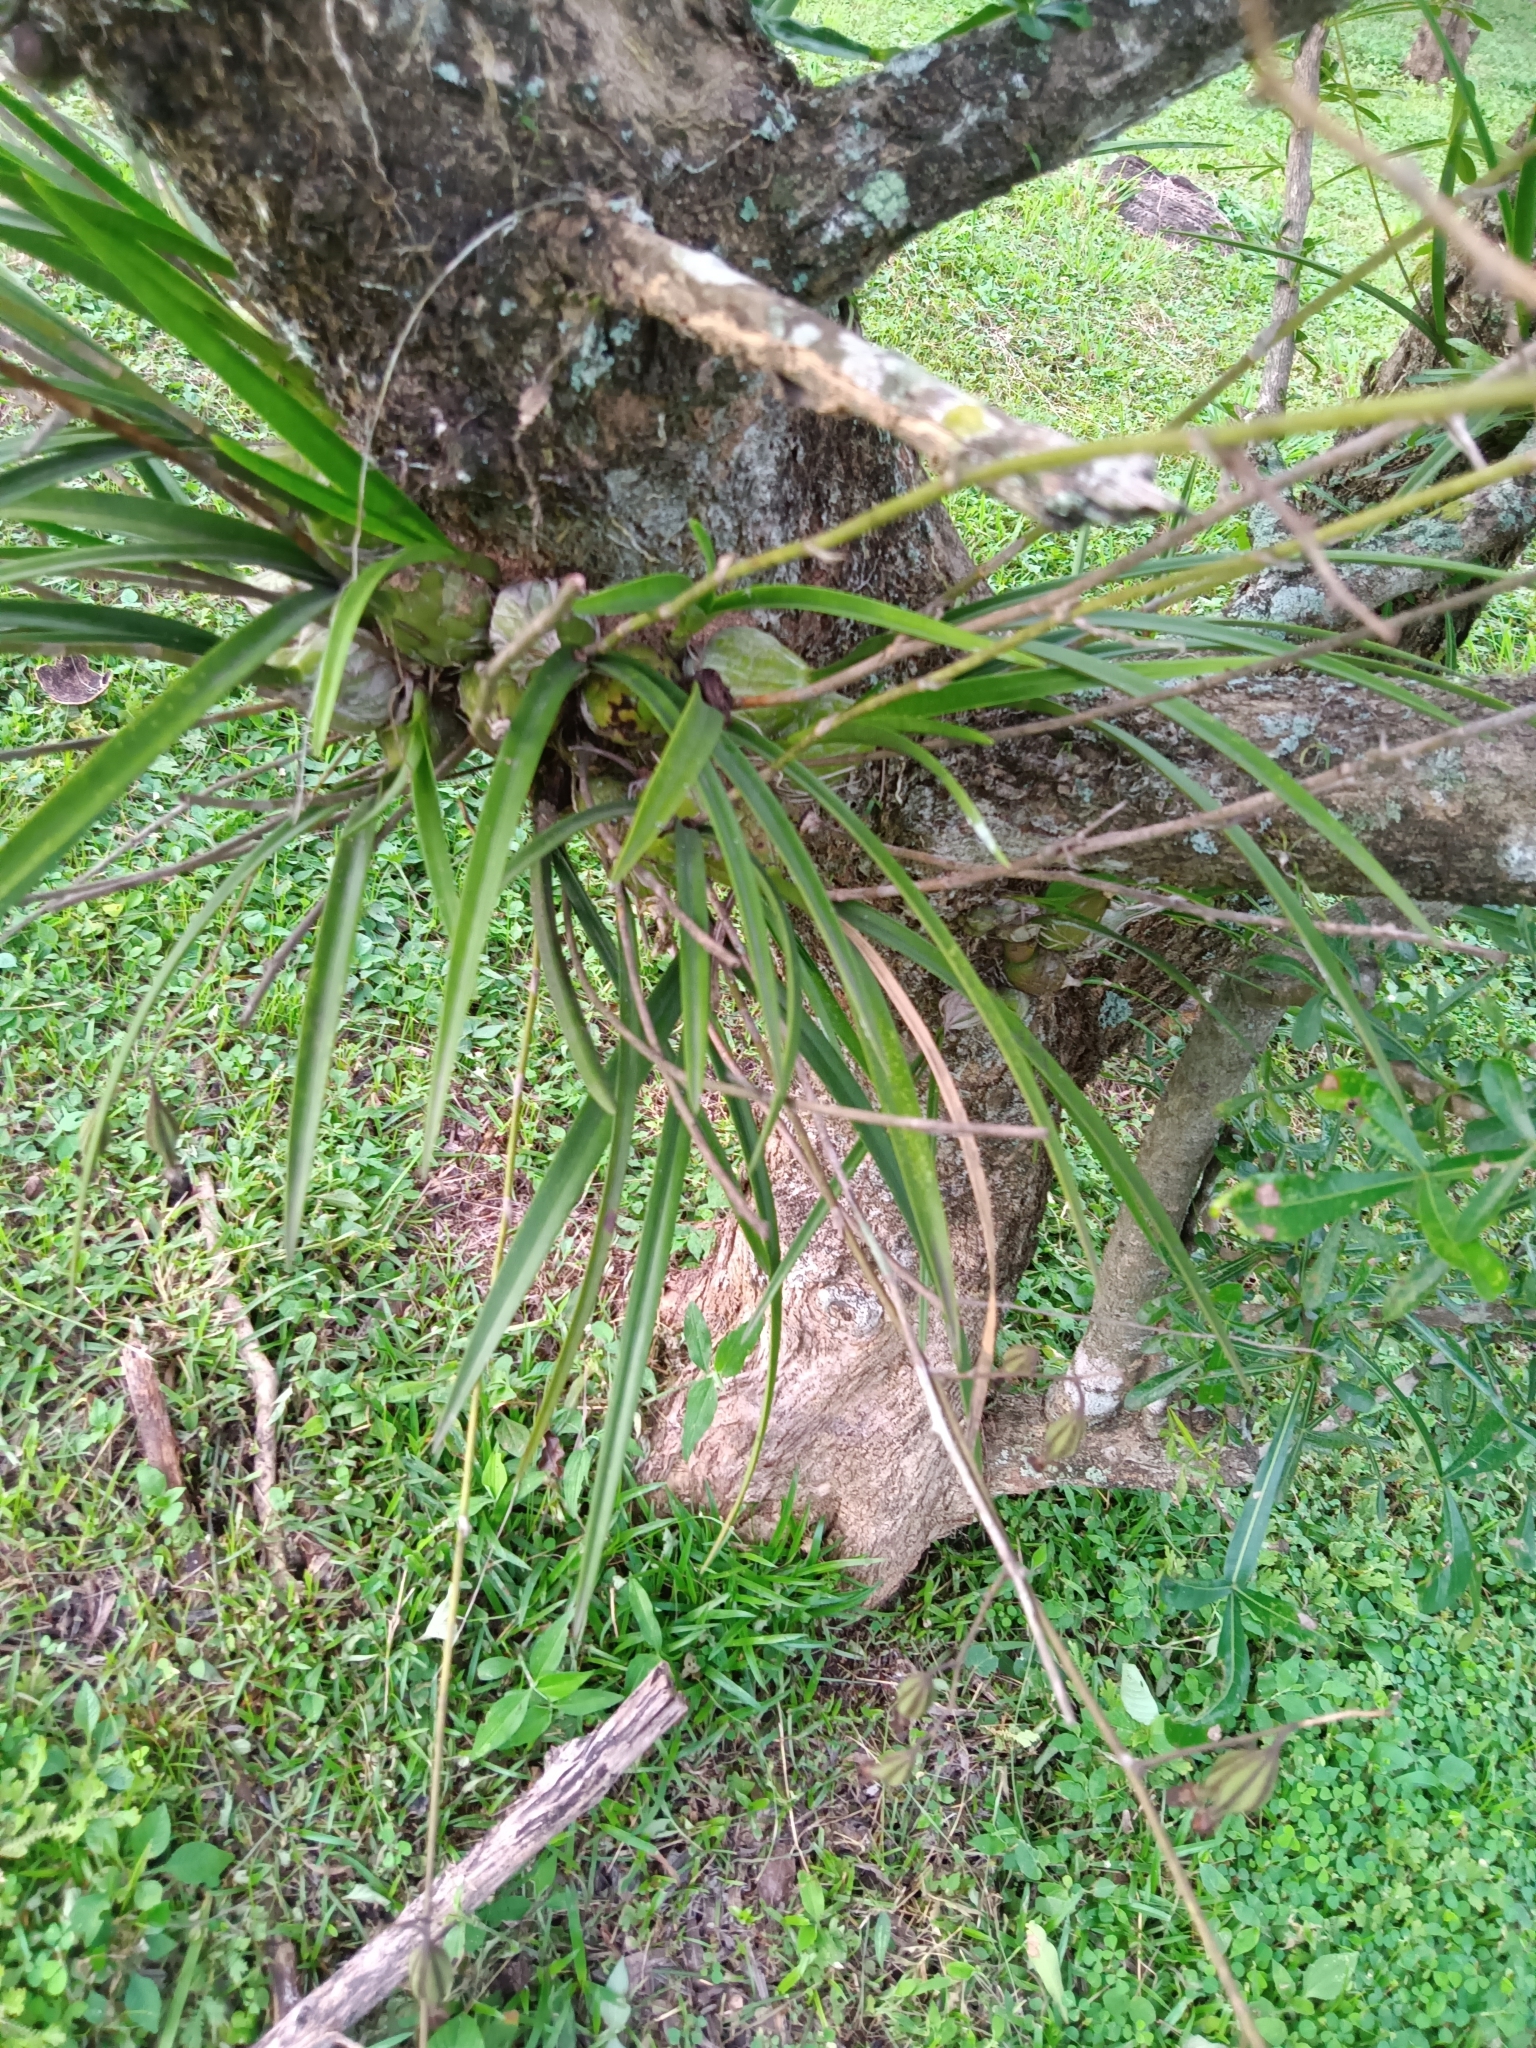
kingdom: Plantae
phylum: Tracheophyta
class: Liliopsida
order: Asparagales
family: Orchidaceae
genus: Encyclia
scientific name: Encyclia bractescens
